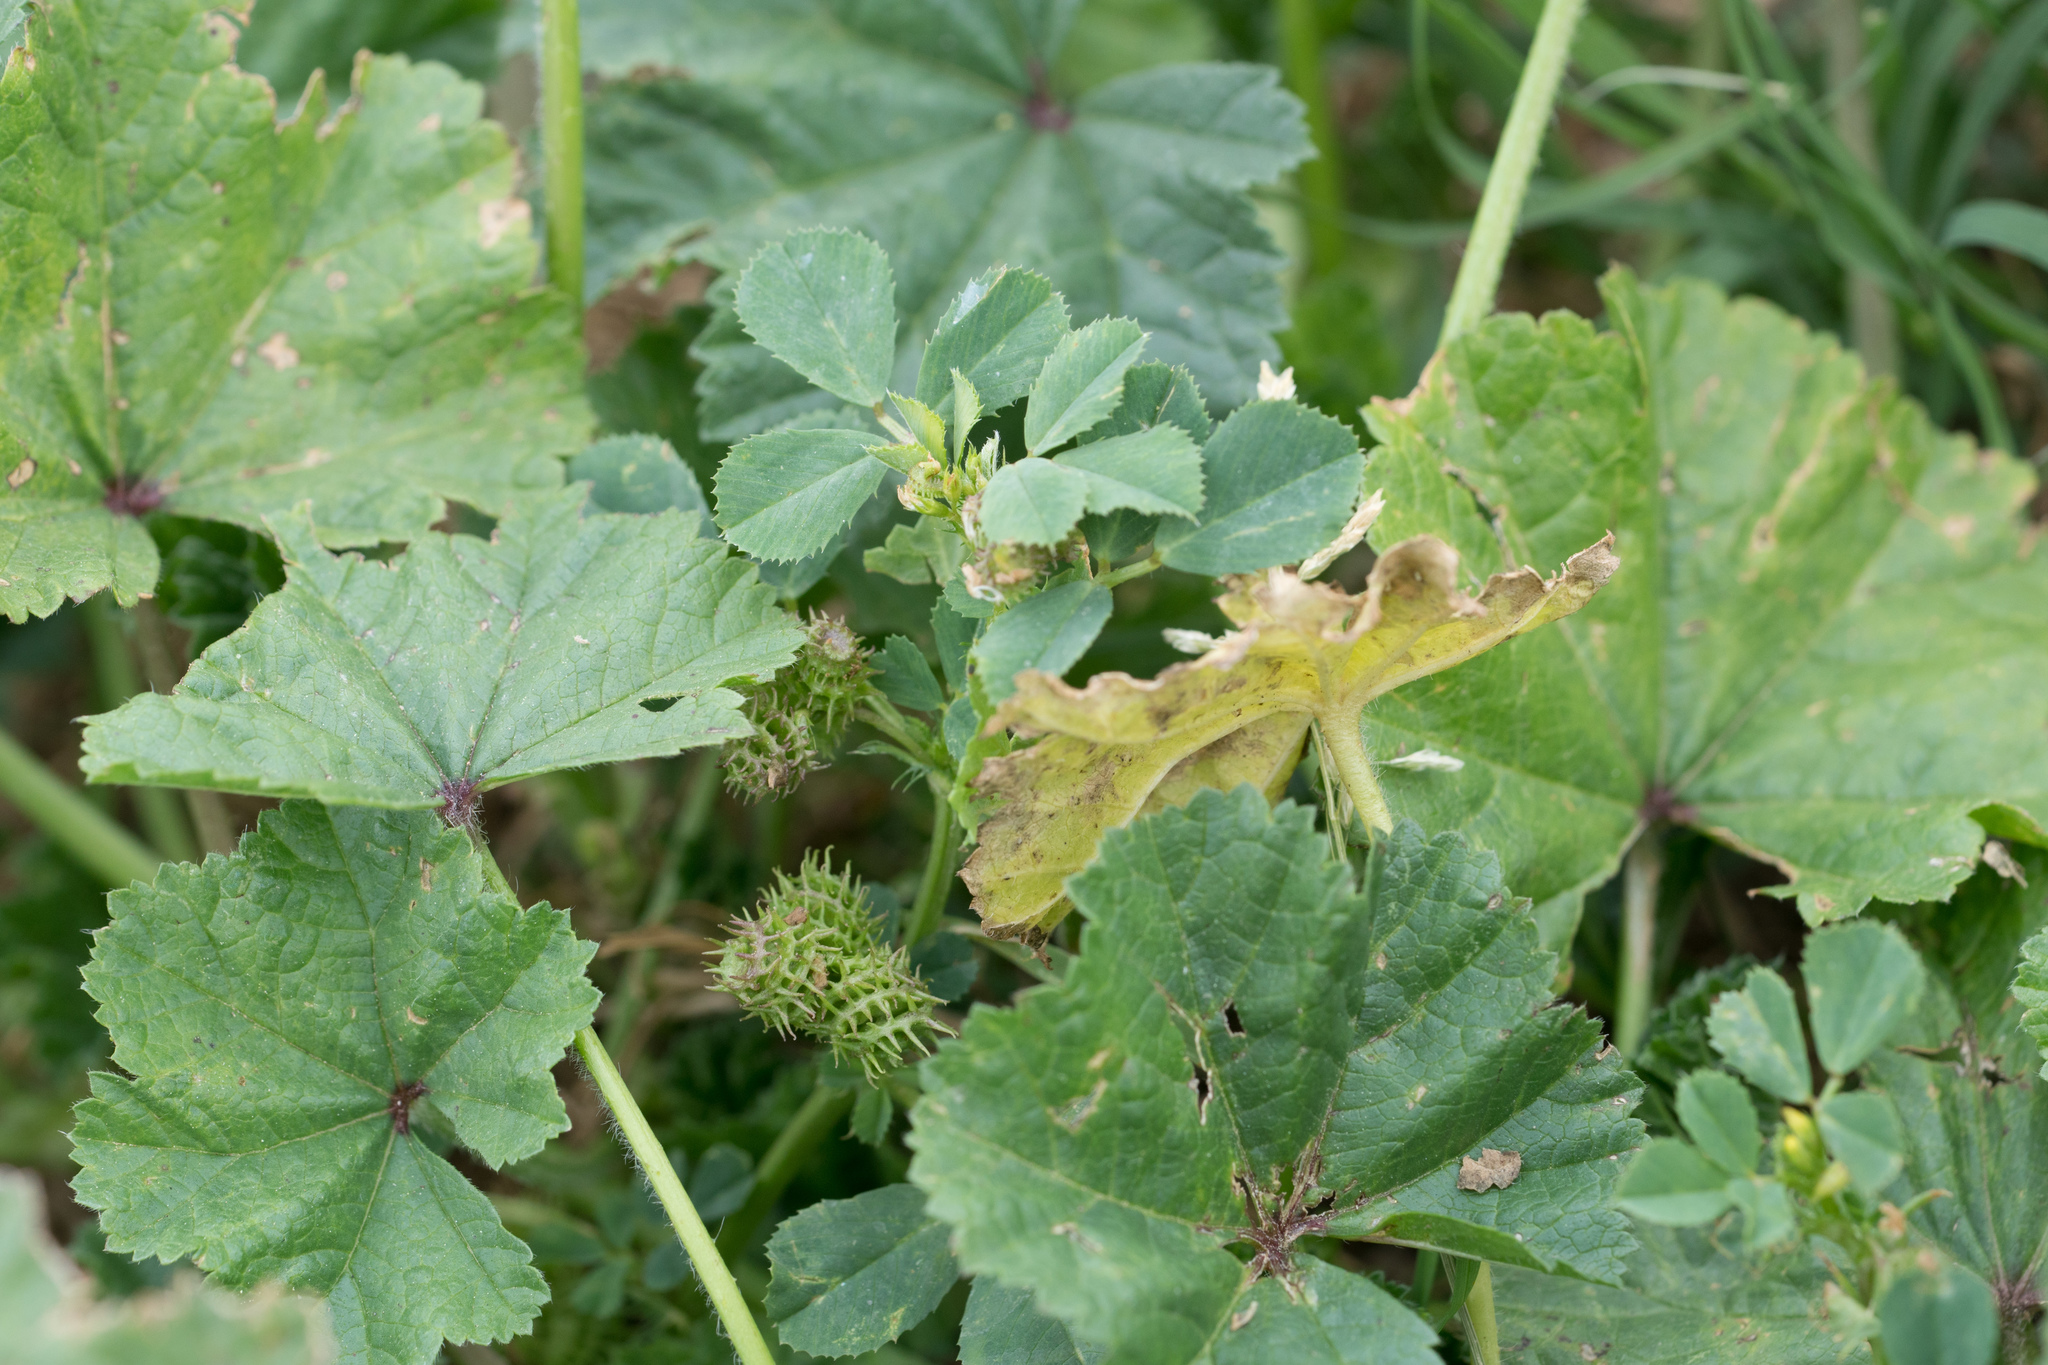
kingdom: Plantae
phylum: Tracheophyta
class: Magnoliopsida
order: Malvales
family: Malvaceae
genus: Malva
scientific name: Malva
